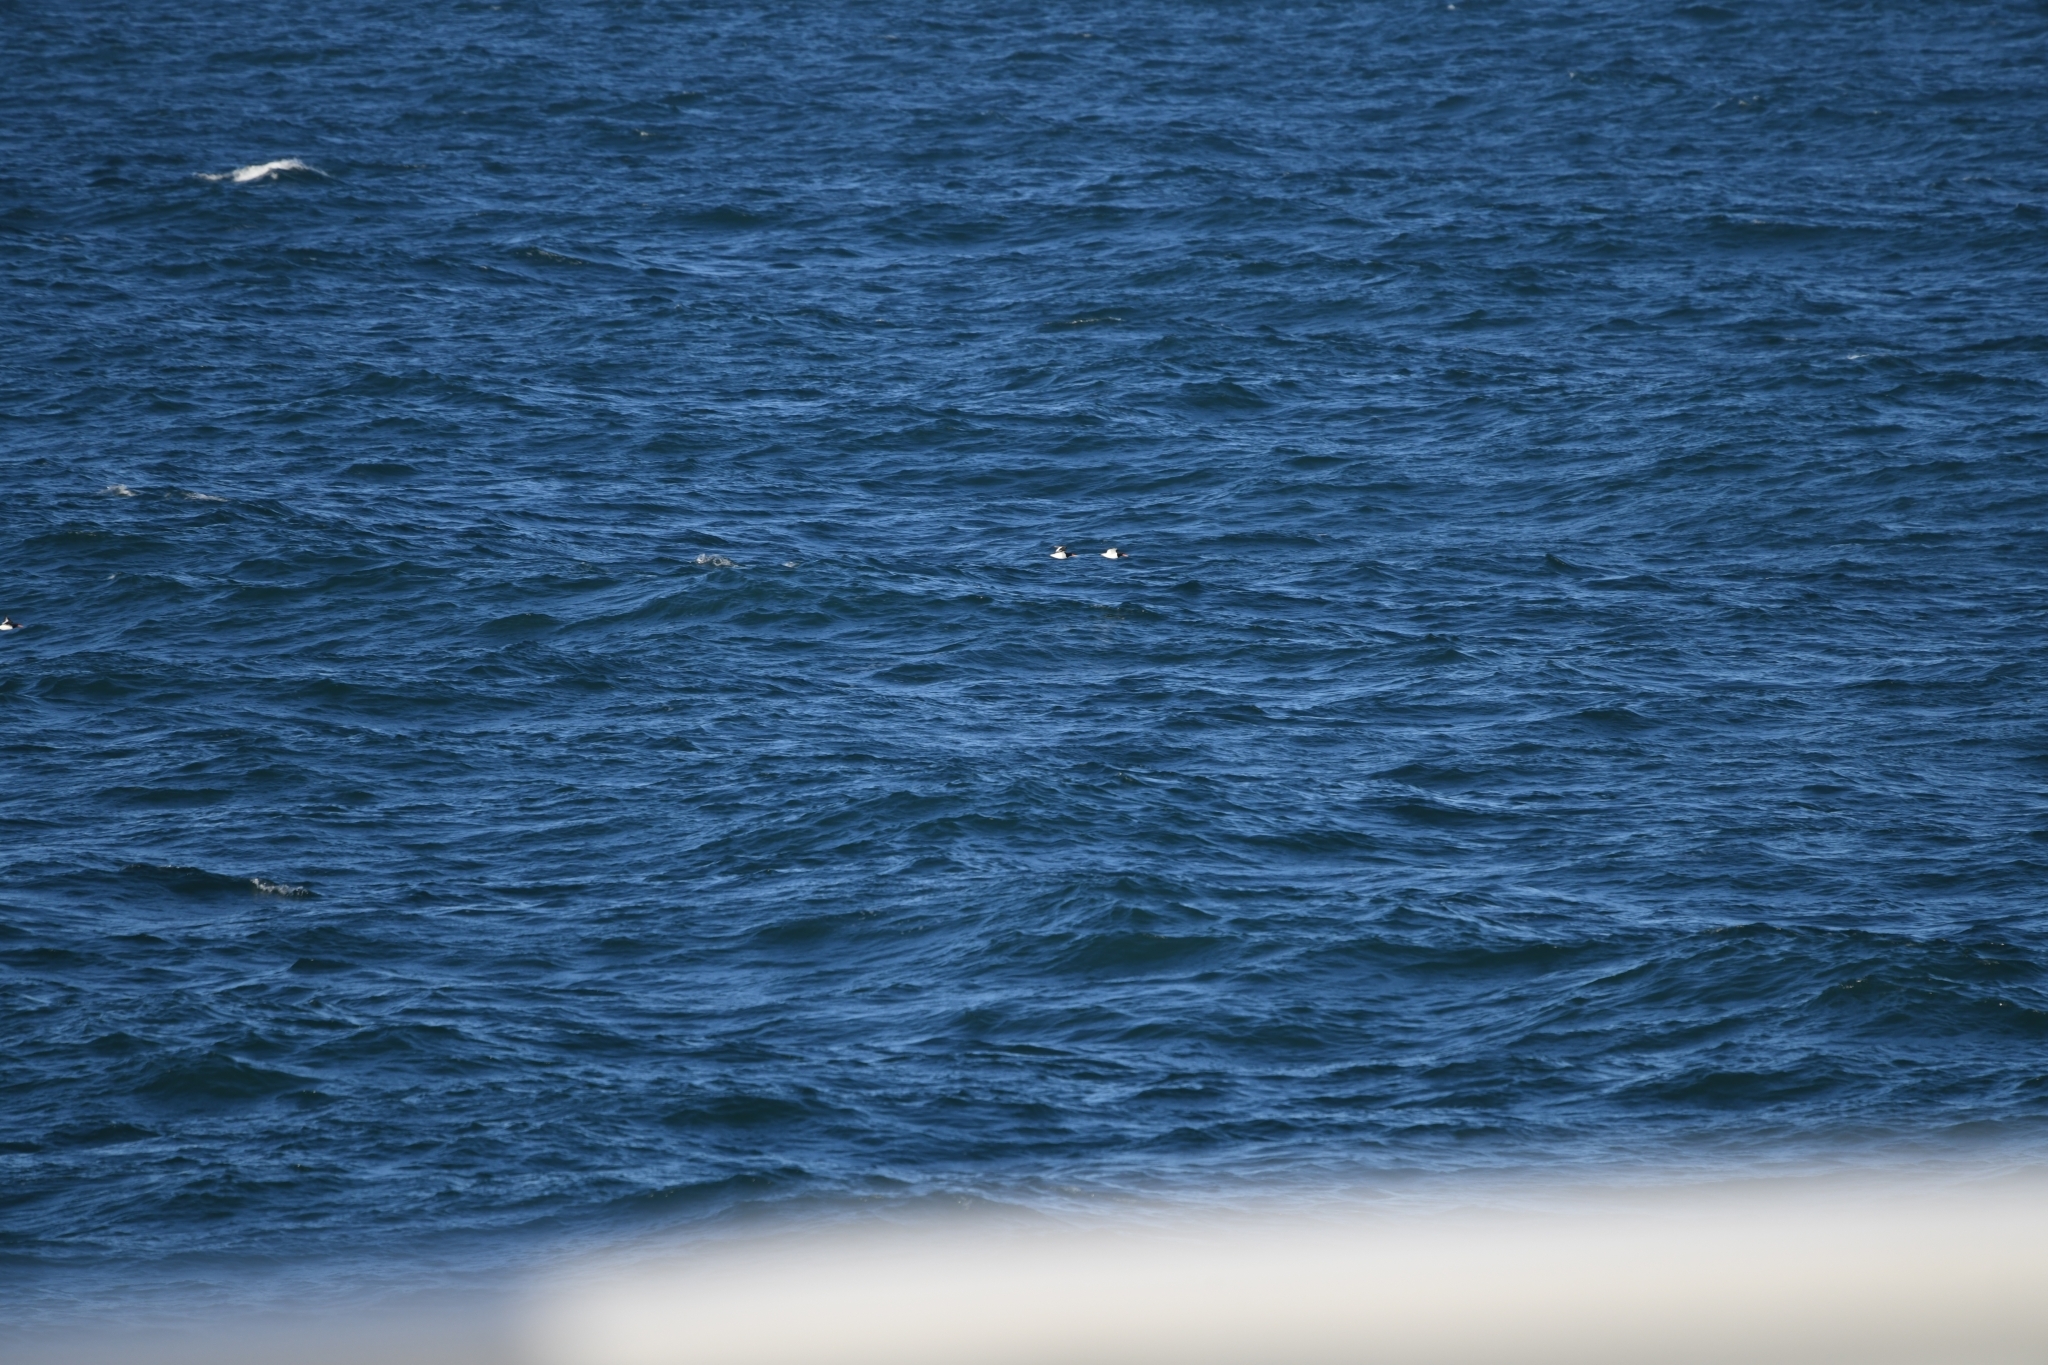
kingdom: Animalia
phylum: Chordata
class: Aves
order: Charadriiformes
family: Haematopodidae
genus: Haematopus
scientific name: Haematopus ostralegus
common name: Eurasian oystercatcher
